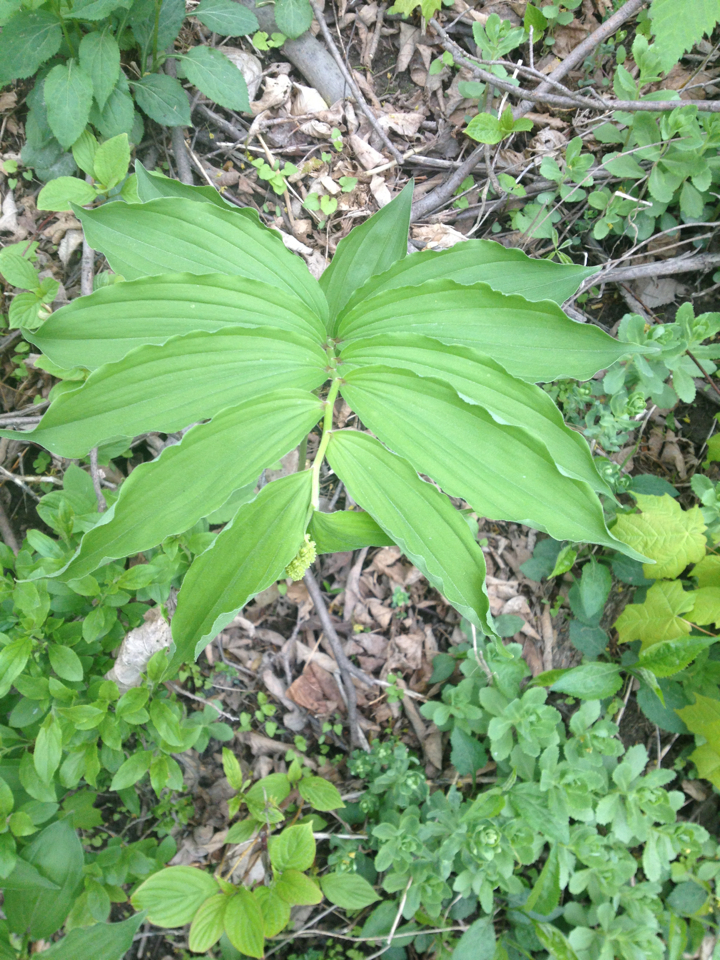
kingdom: Plantae
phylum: Tracheophyta
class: Liliopsida
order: Asparagales
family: Asparagaceae
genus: Maianthemum
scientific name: Maianthemum racemosum
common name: False spikenard
